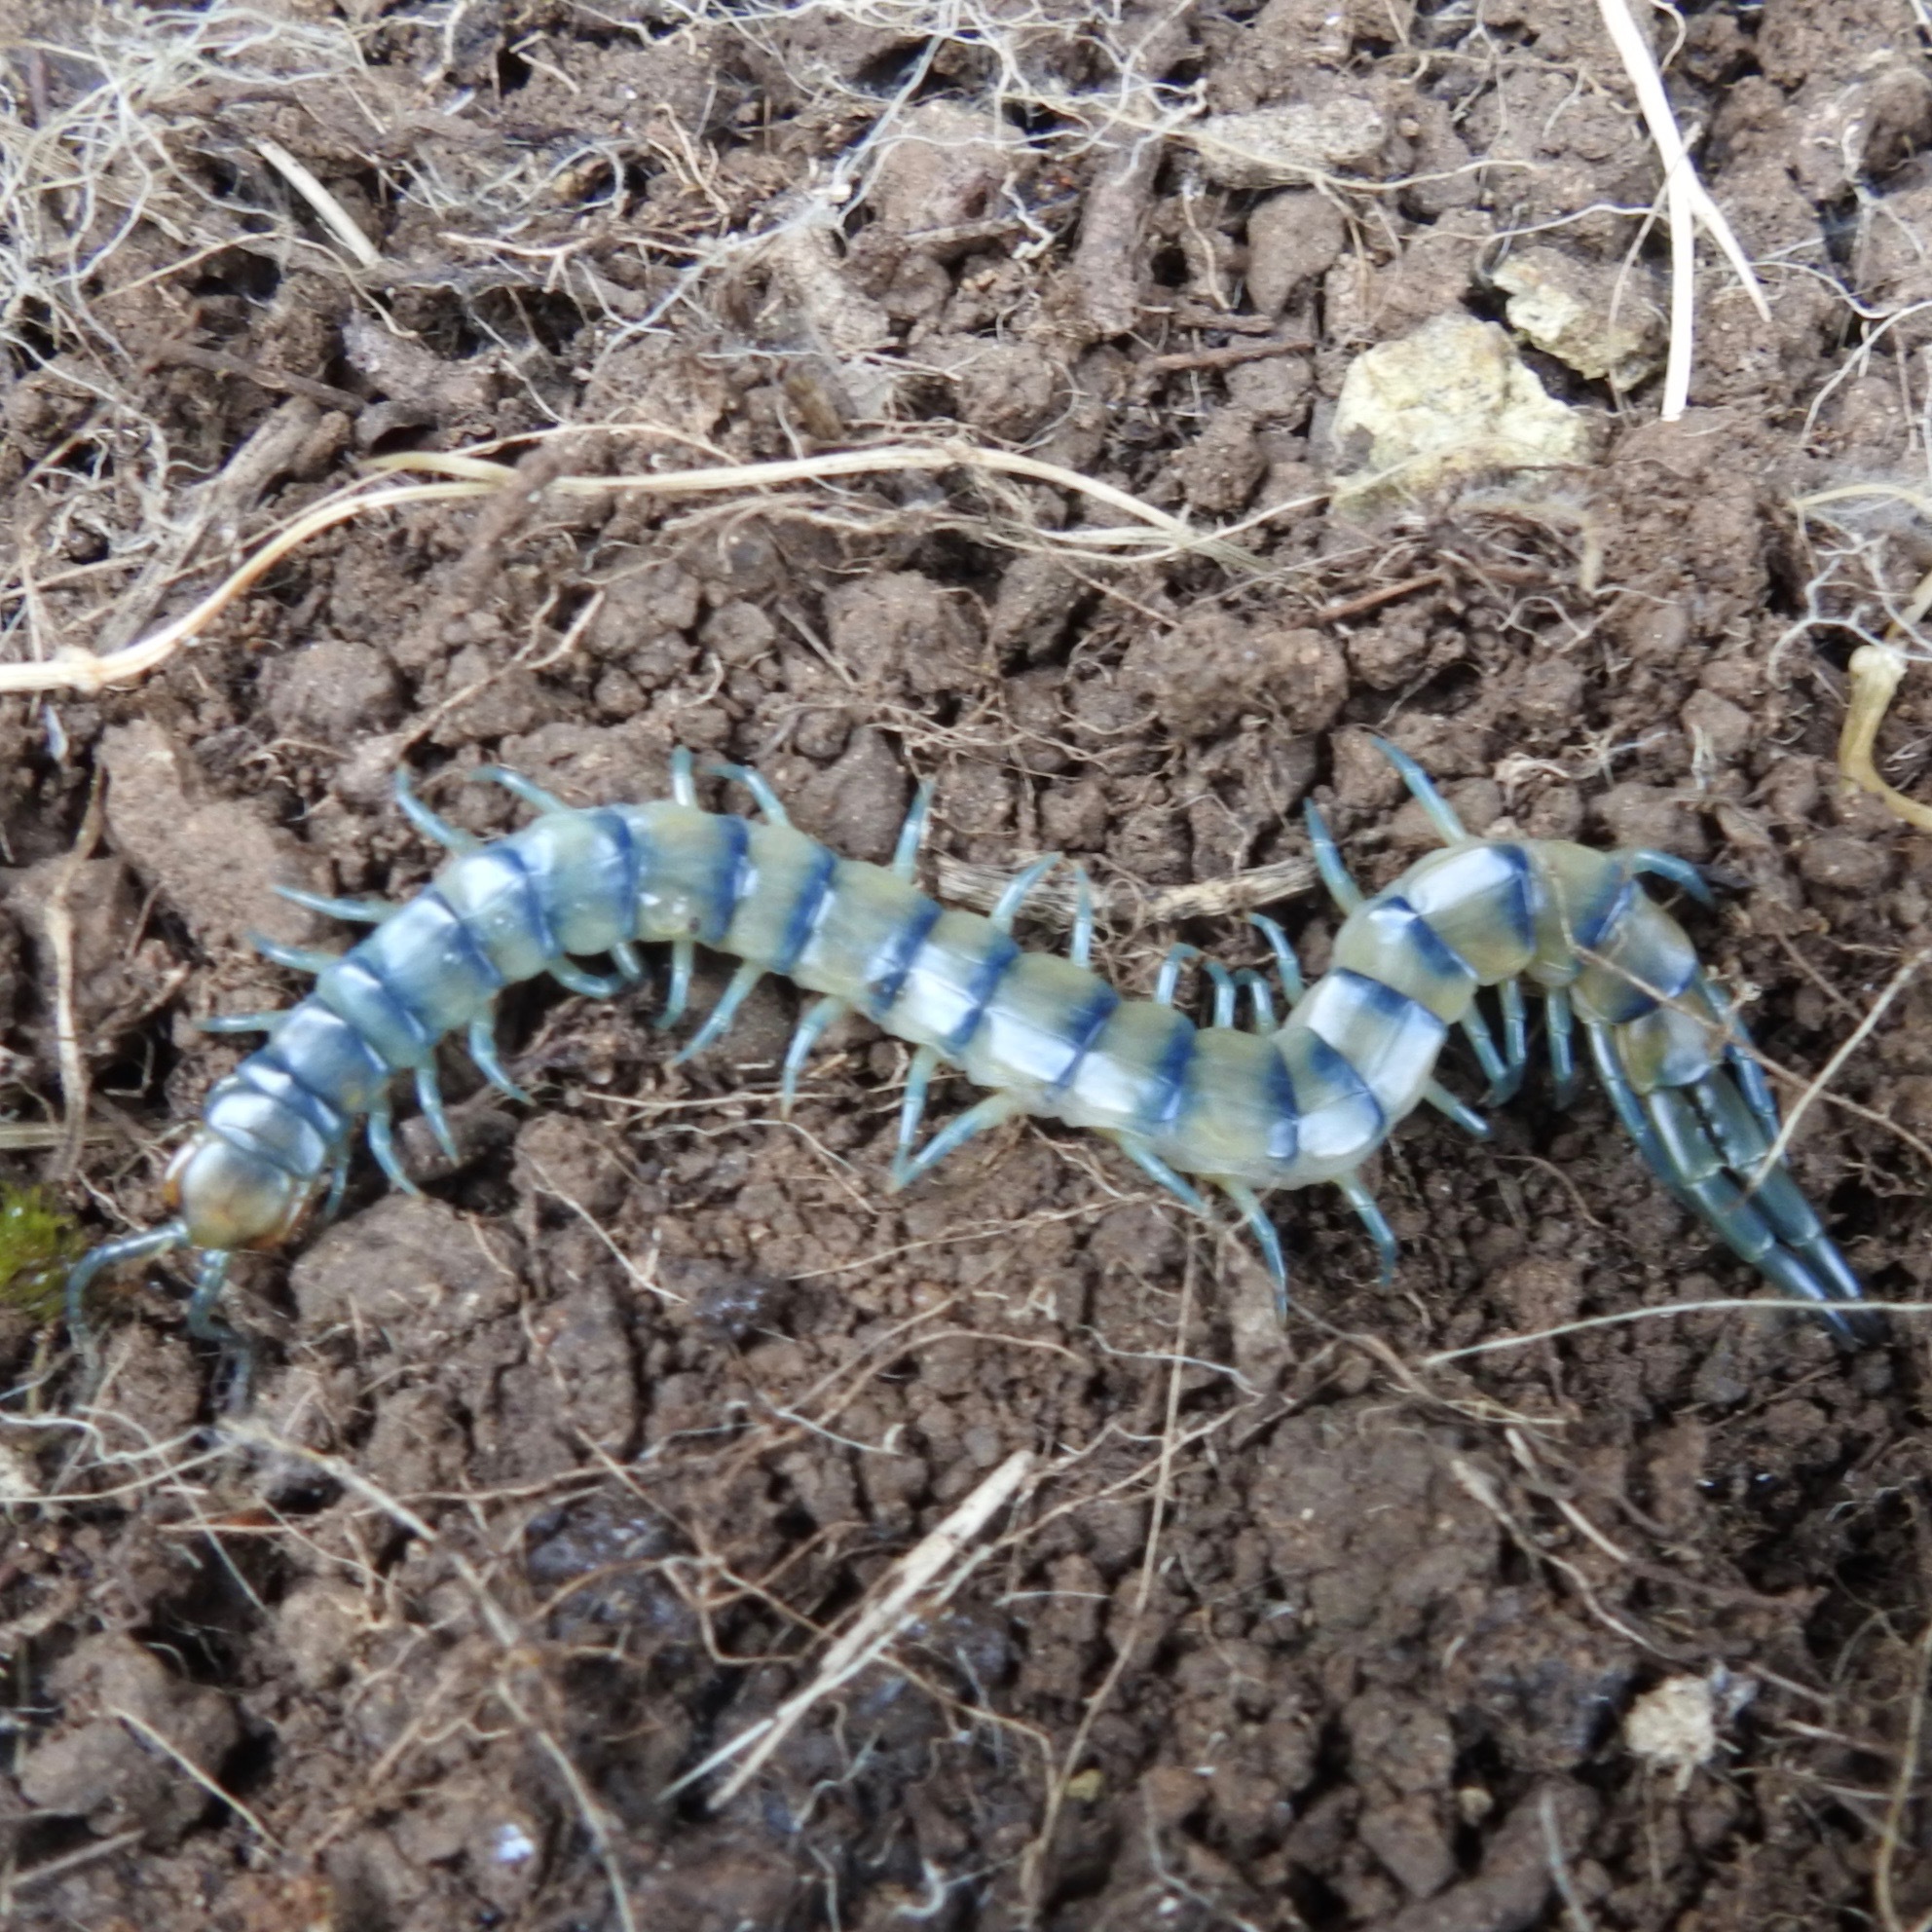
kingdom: Animalia
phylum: Arthropoda
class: Chilopoda
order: Scolopendromorpha
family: Scolopendridae
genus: Scolopendra
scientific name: Scolopendra polymorpha
